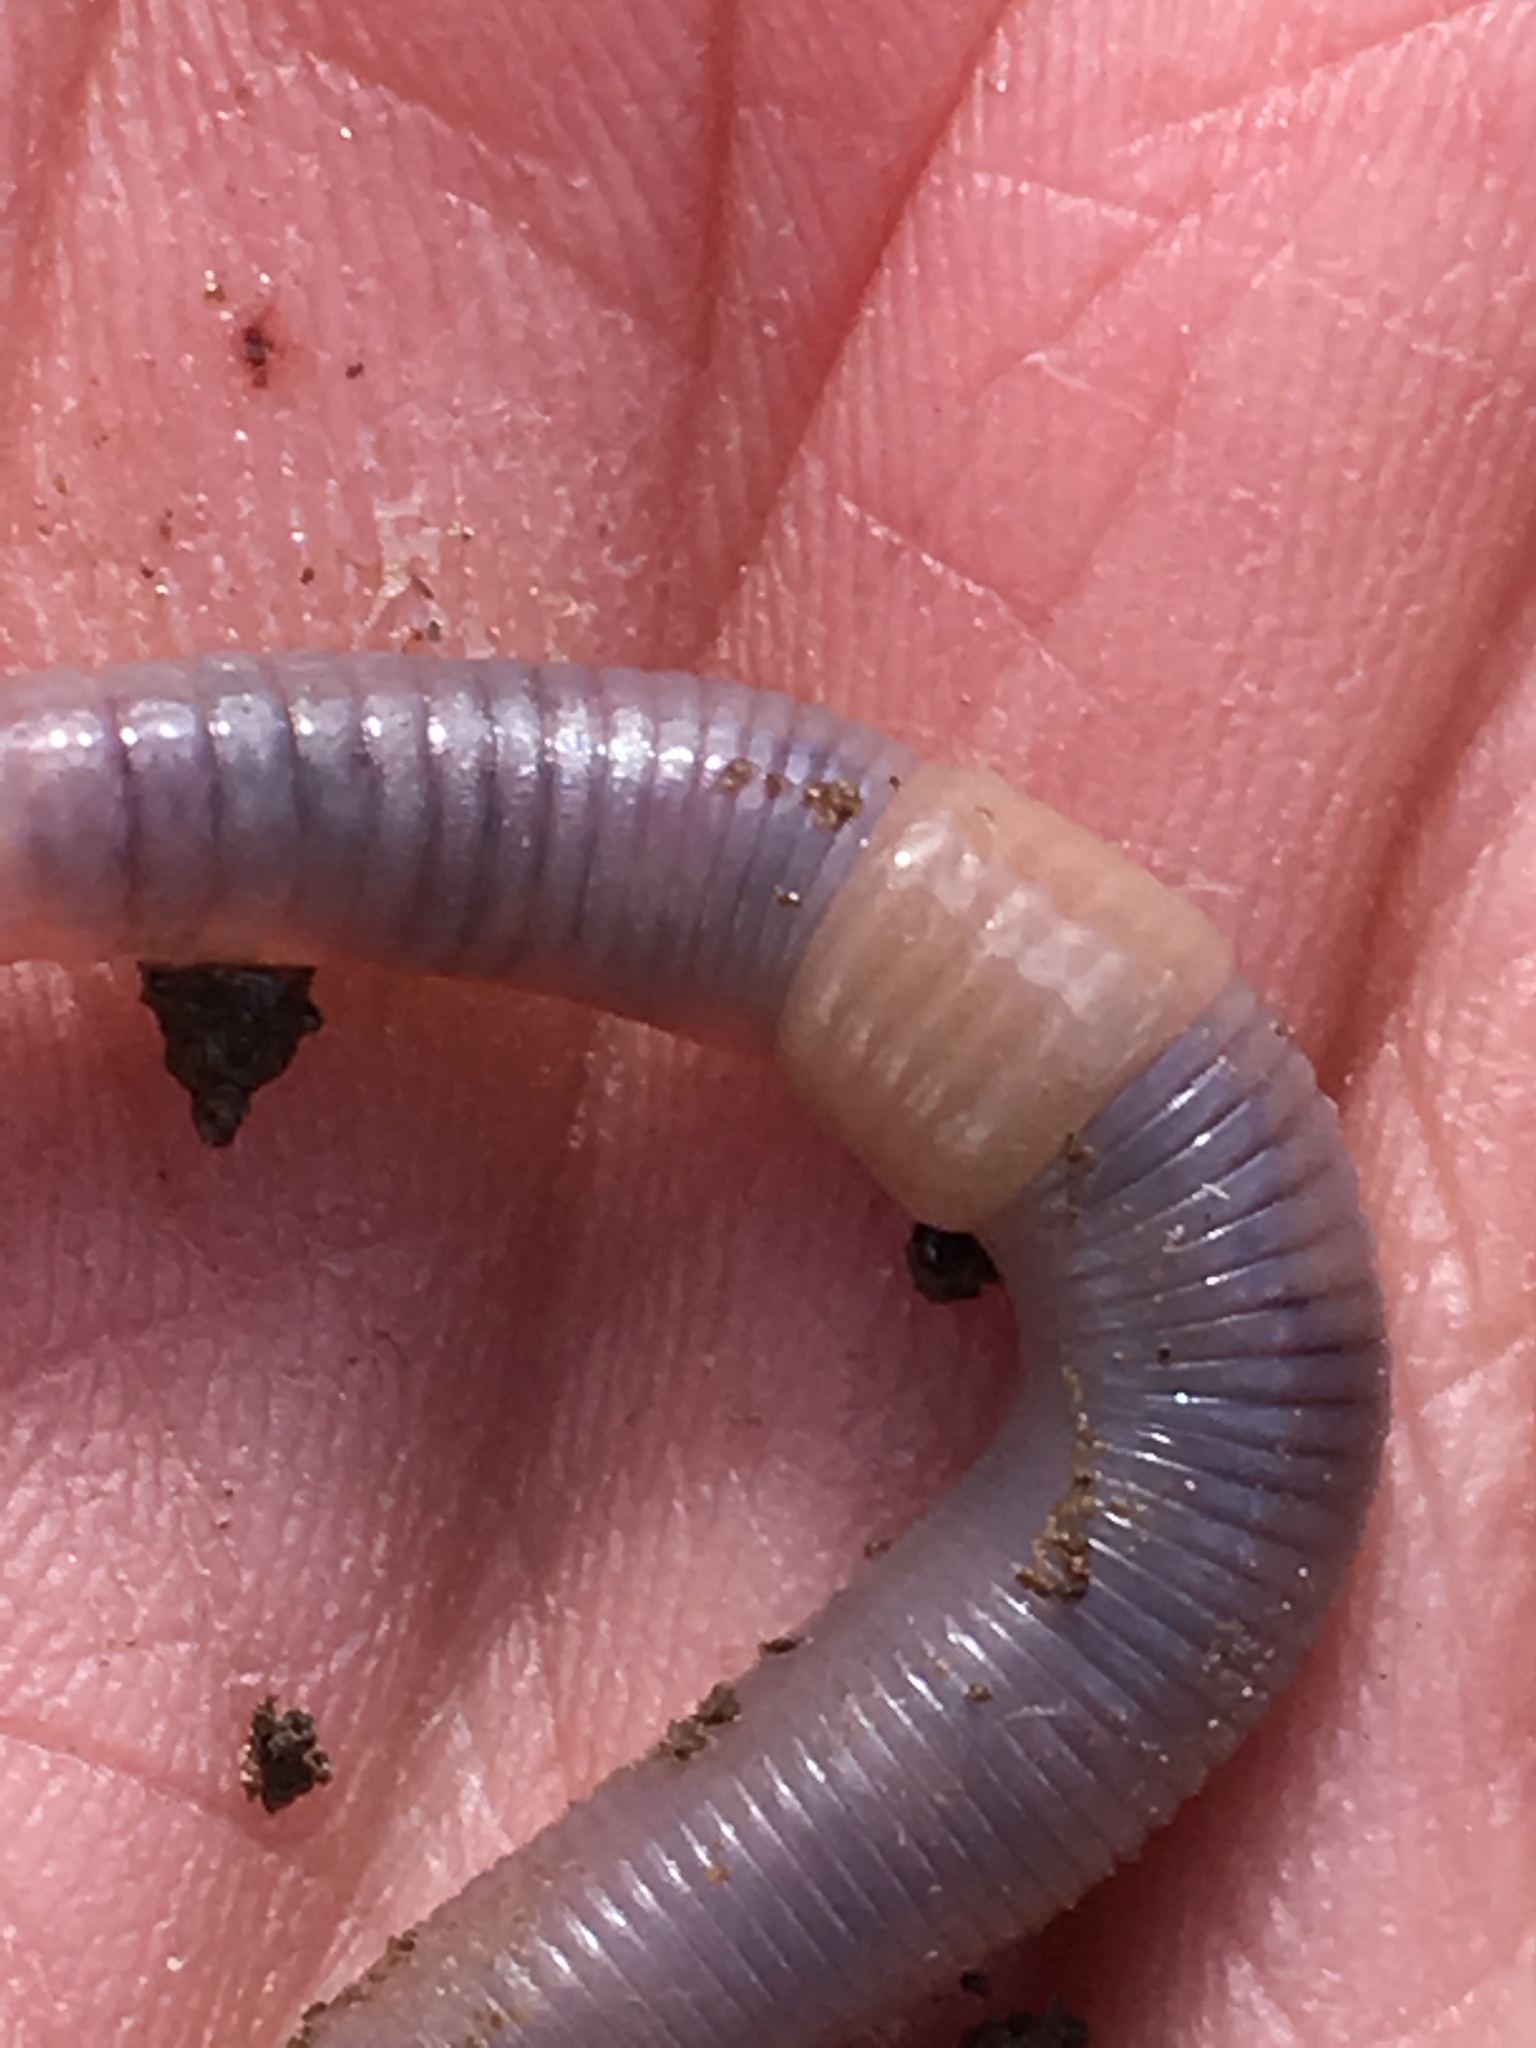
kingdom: Animalia
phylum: Annelida
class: Clitellata
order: Crassiclitellata
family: Lumbricidae
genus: Aporrectodea
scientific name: Aporrectodea caliginosa
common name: Grey worm
